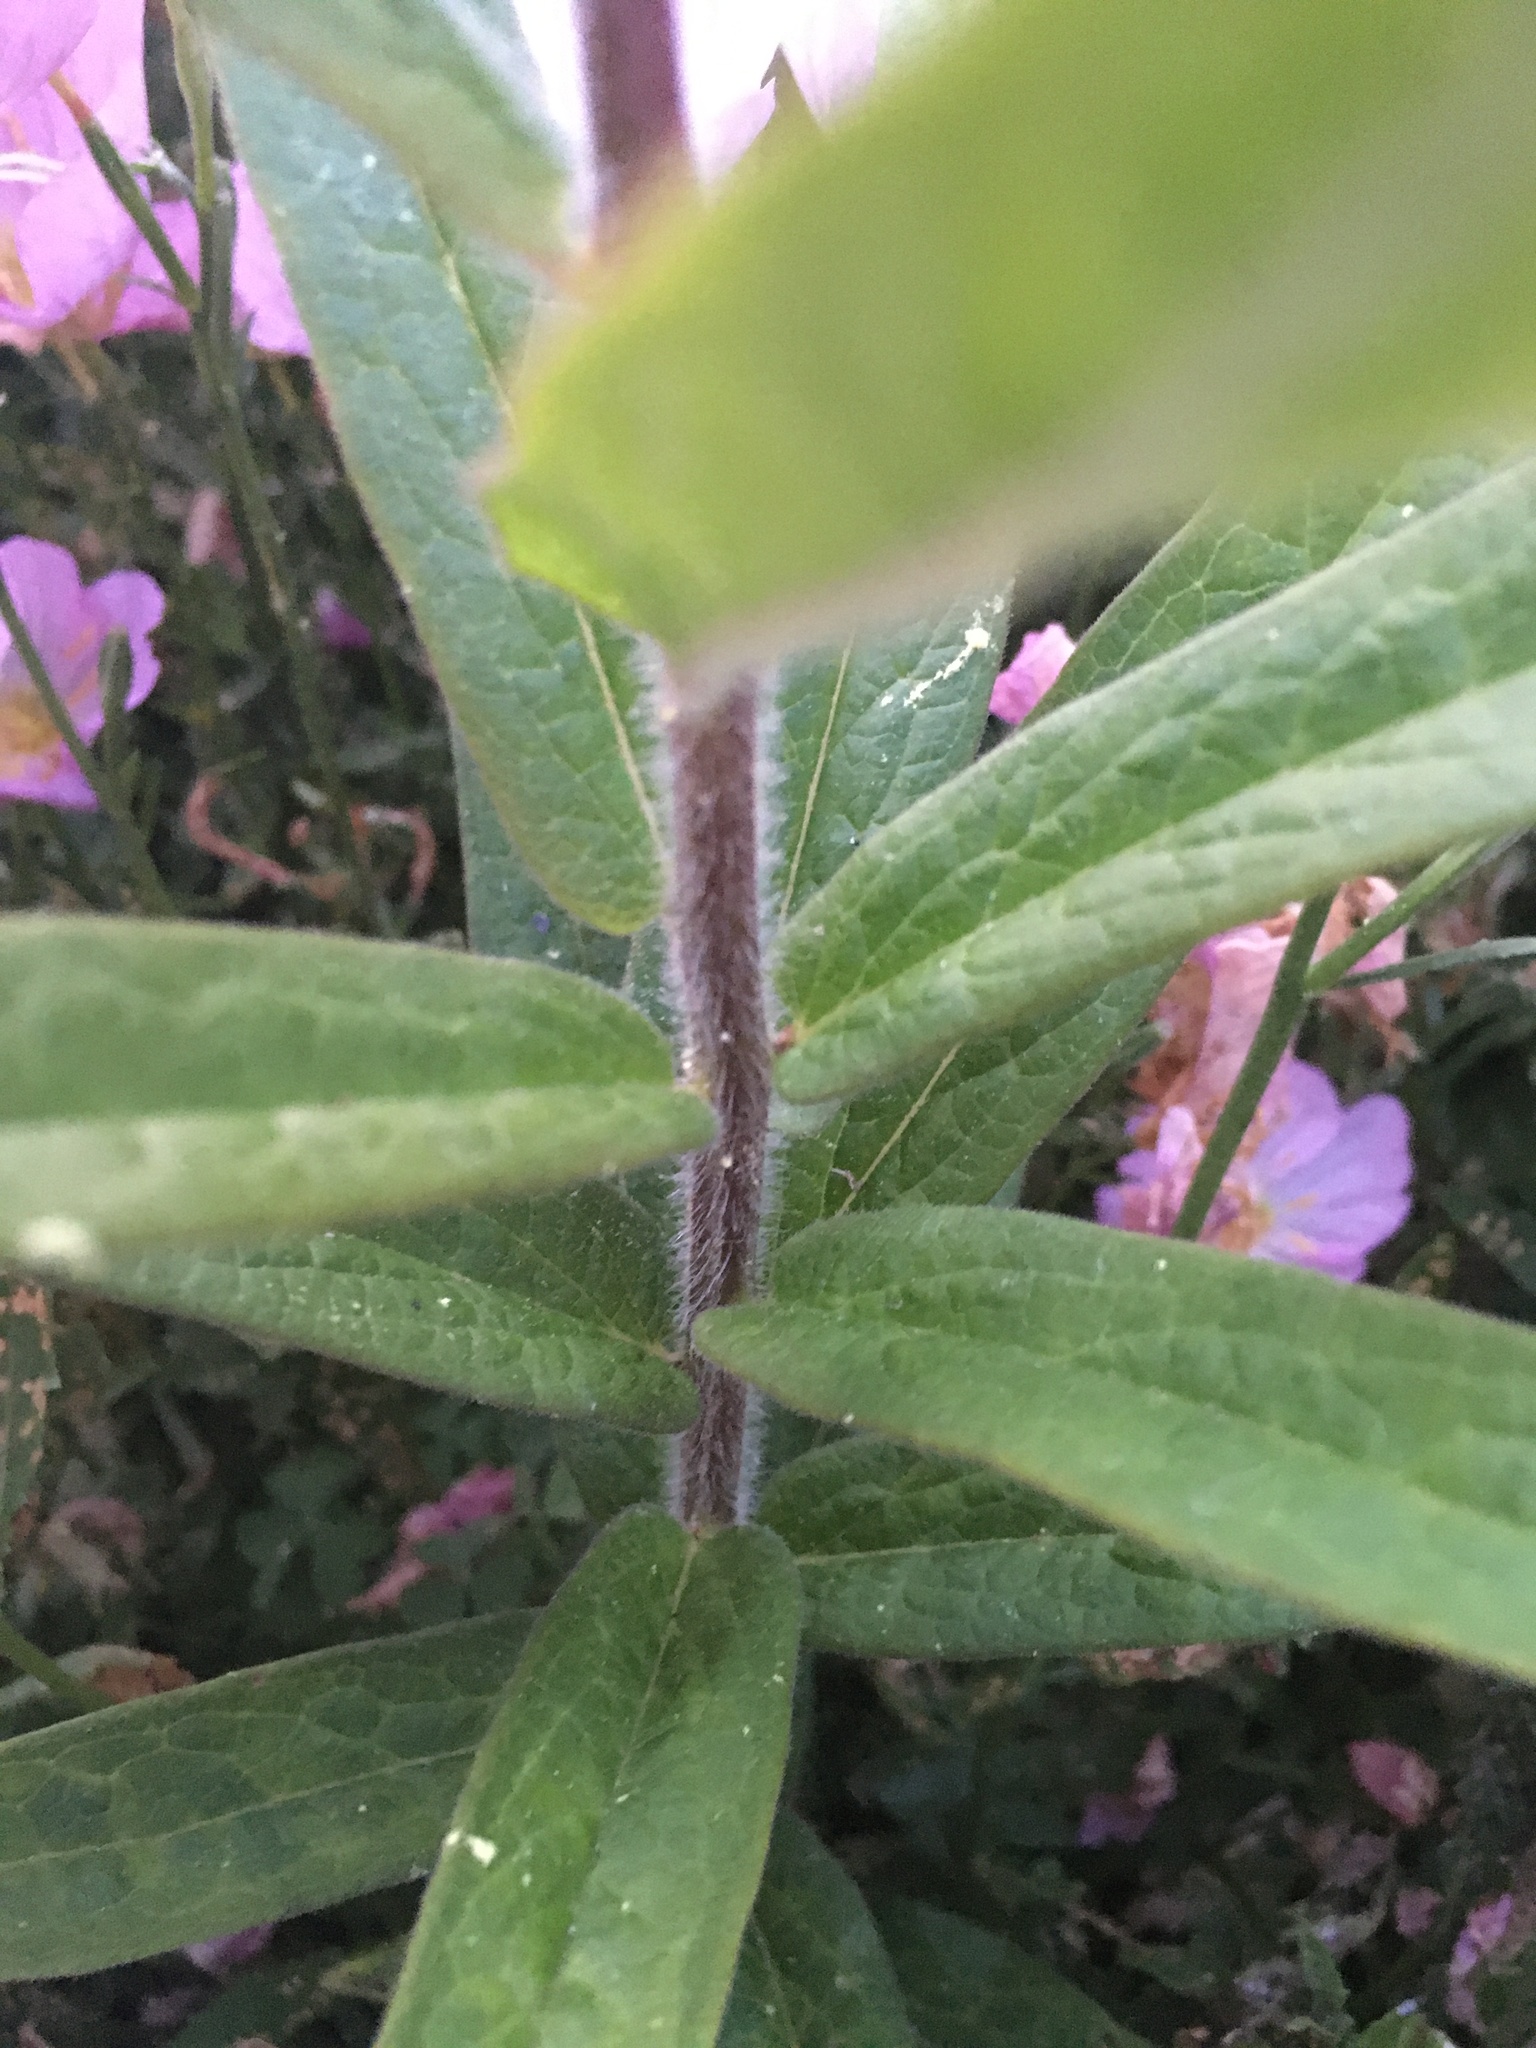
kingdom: Plantae
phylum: Tracheophyta
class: Magnoliopsida
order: Gentianales
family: Apocynaceae
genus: Asclepias
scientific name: Asclepias tuberosa
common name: Butterfly milkweed
